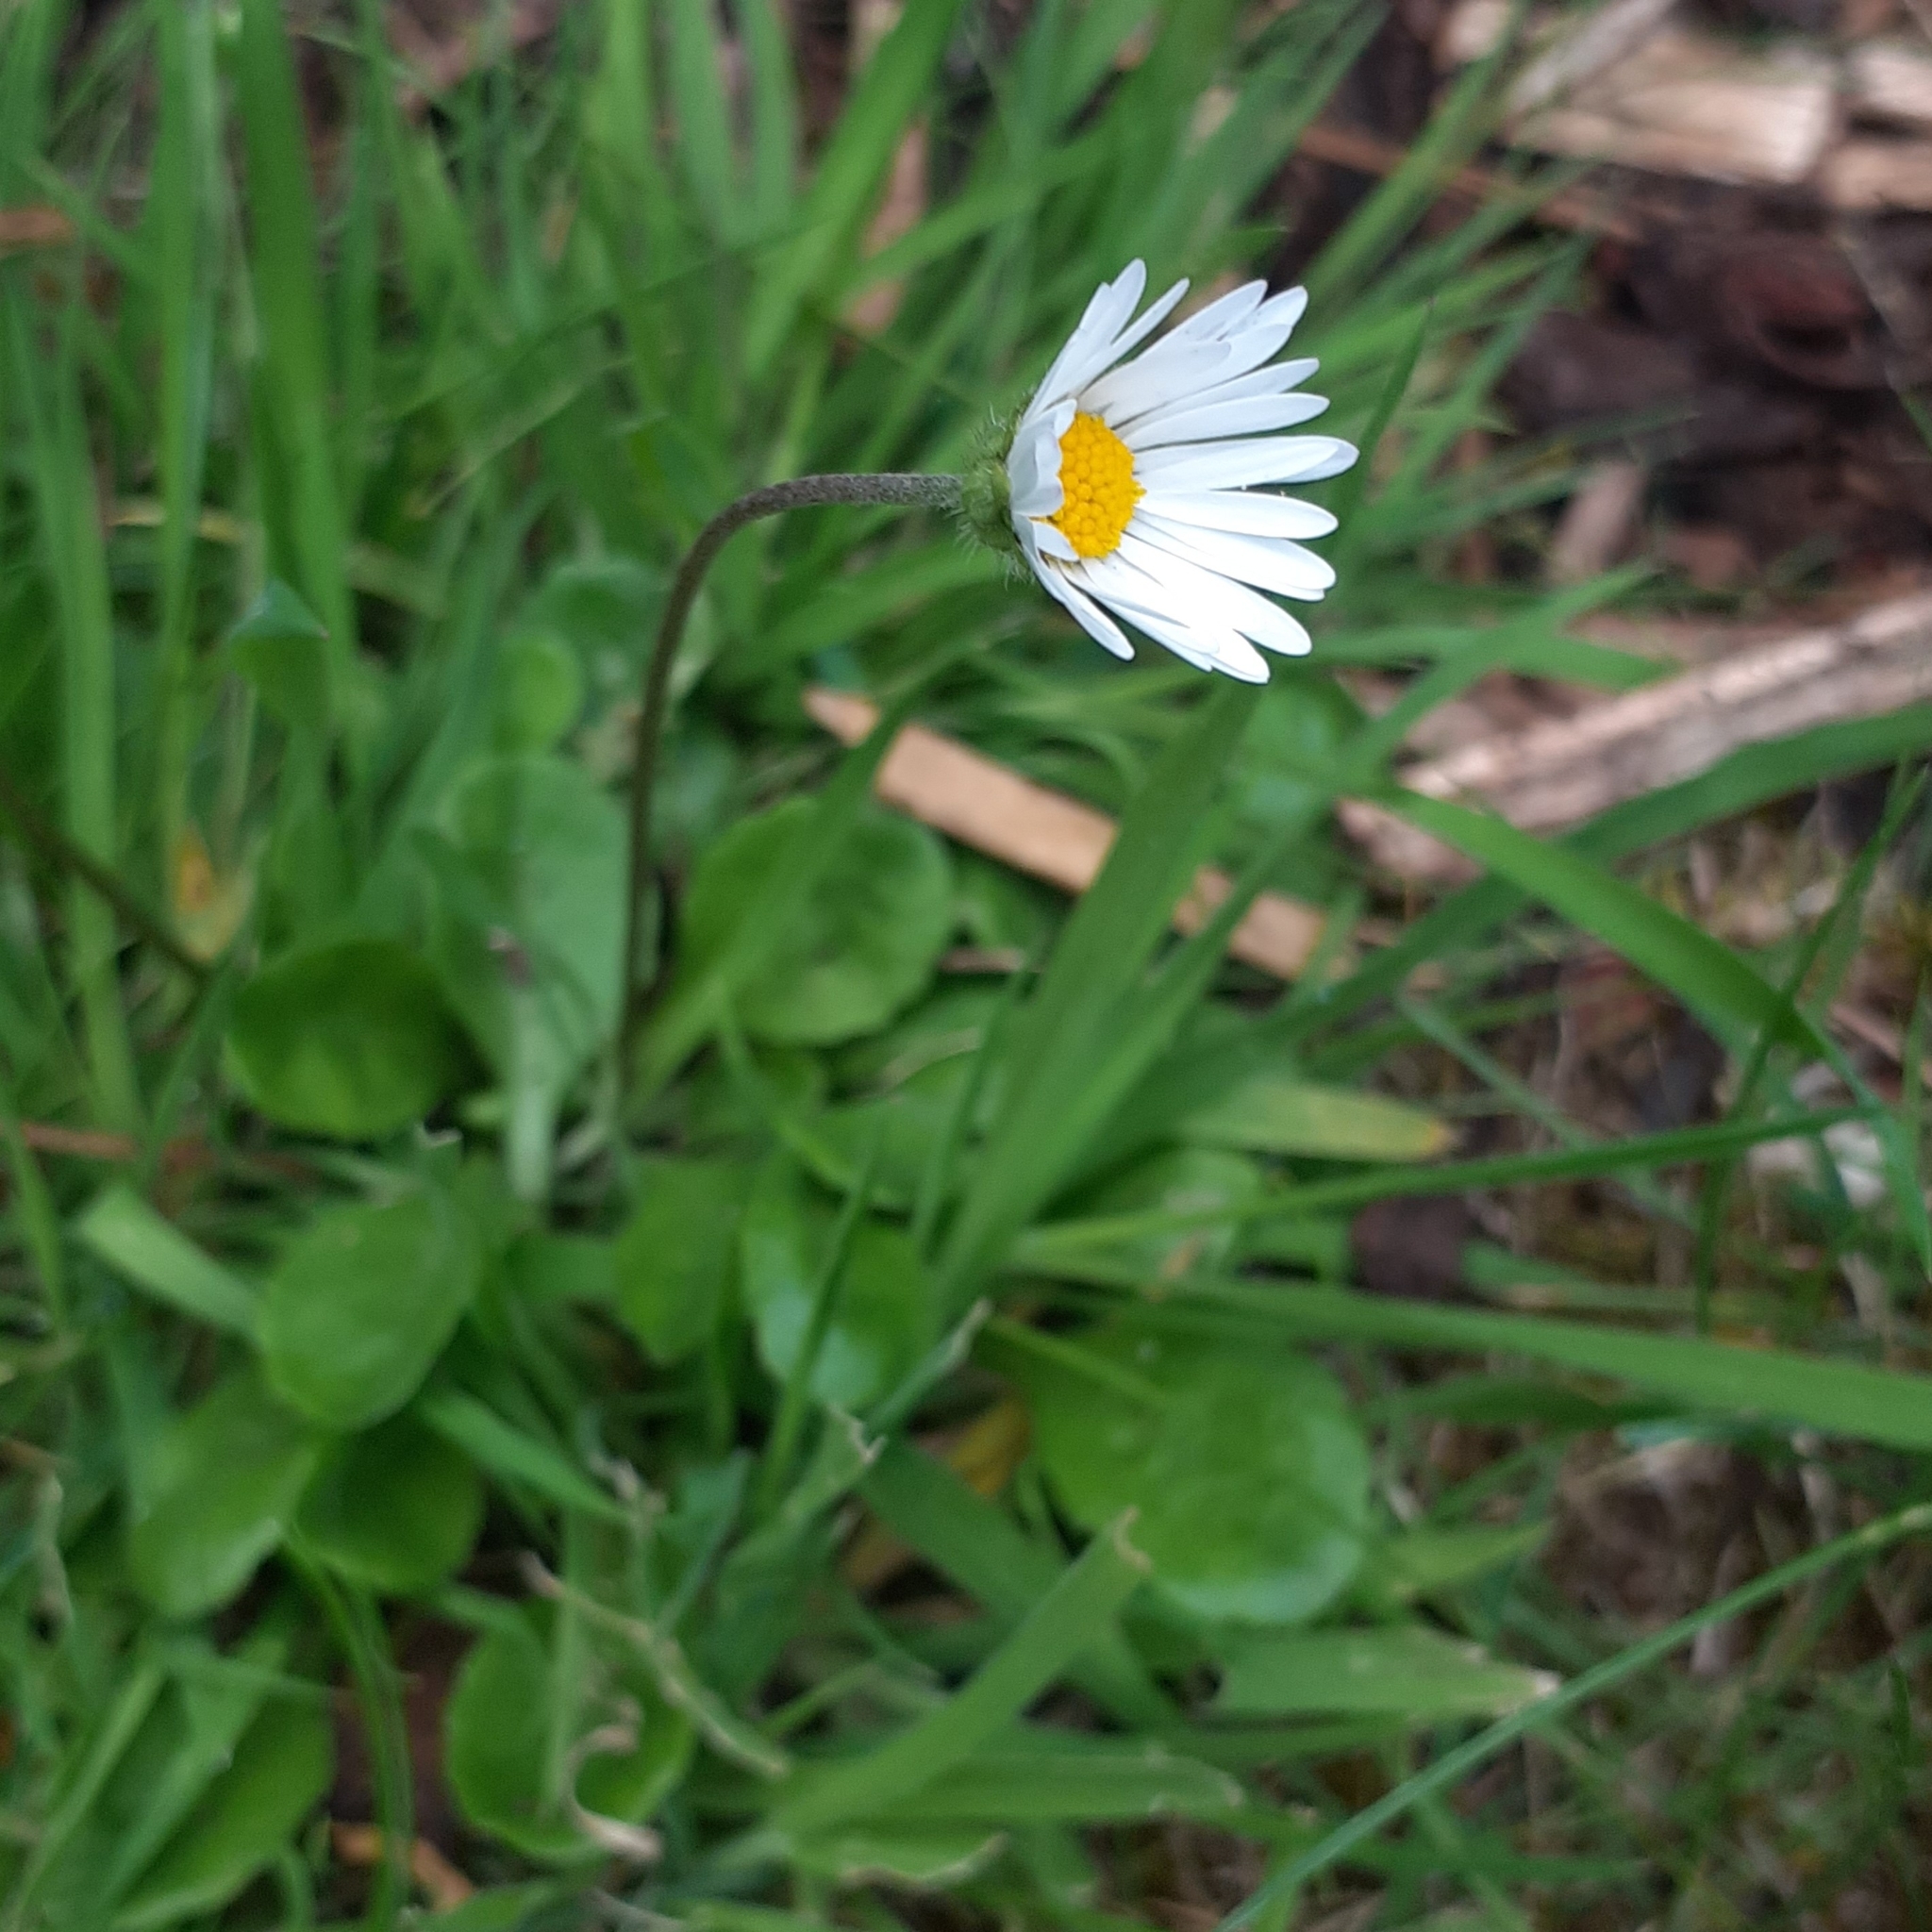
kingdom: Plantae
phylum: Tracheophyta
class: Magnoliopsida
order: Asterales
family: Asteraceae
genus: Bellis
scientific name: Bellis perennis
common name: Lawndaisy
